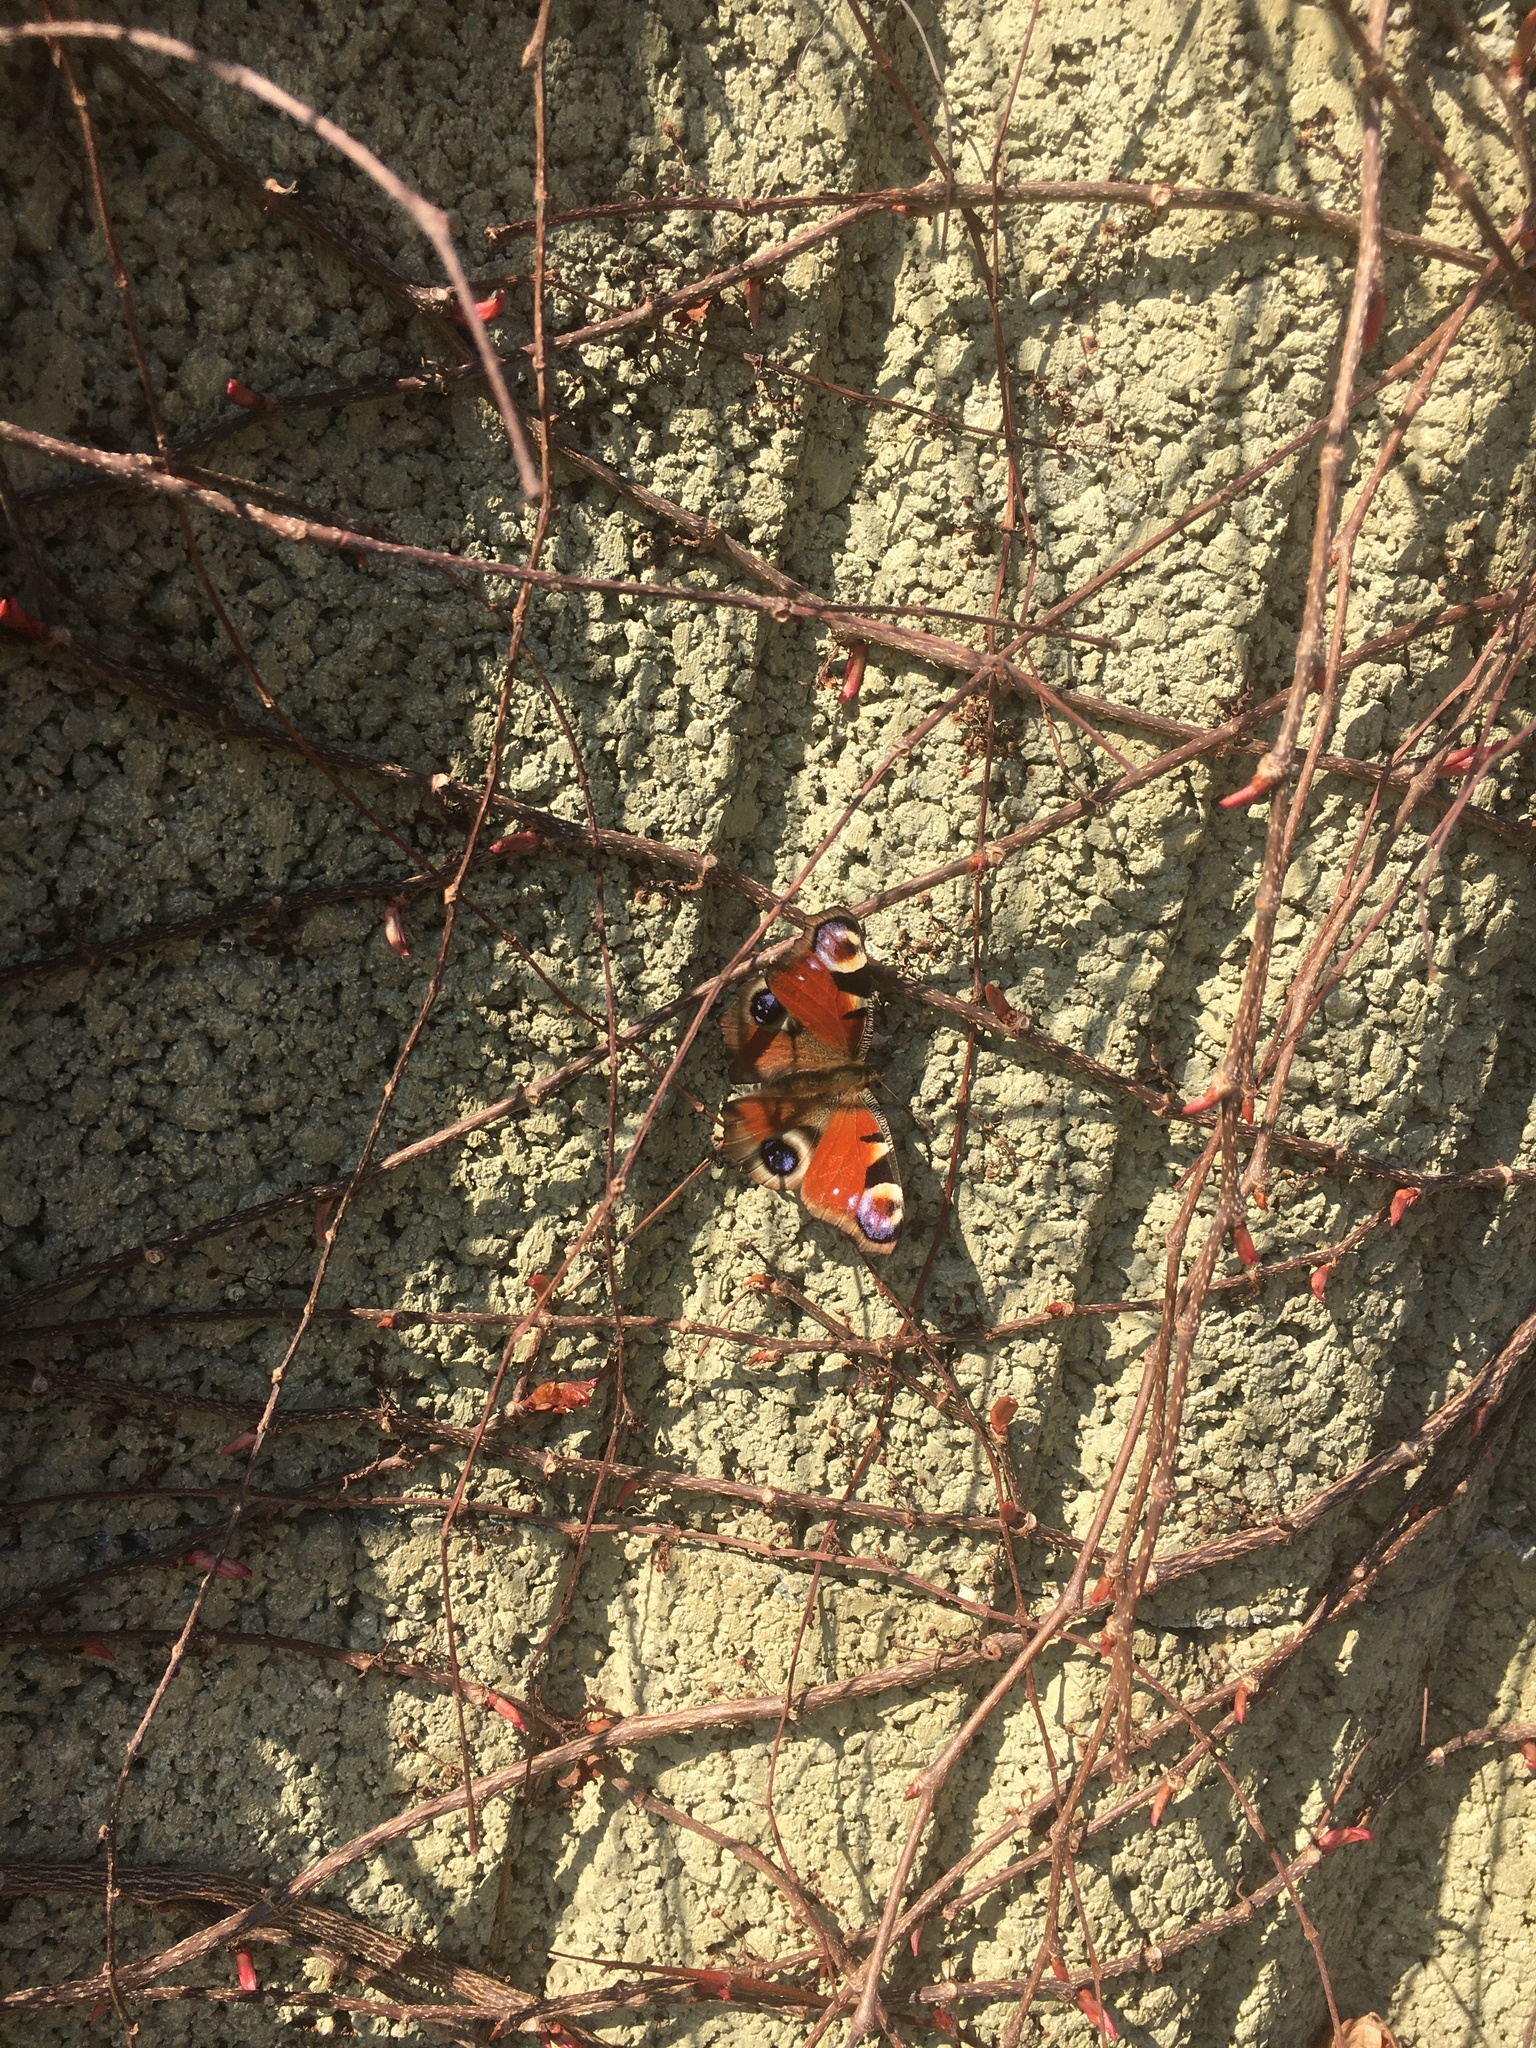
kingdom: Animalia
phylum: Arthropoda
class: Insecta
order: Lepidoptera
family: Nymphalidae
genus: Aglais
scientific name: Aglais io
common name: Peacock
